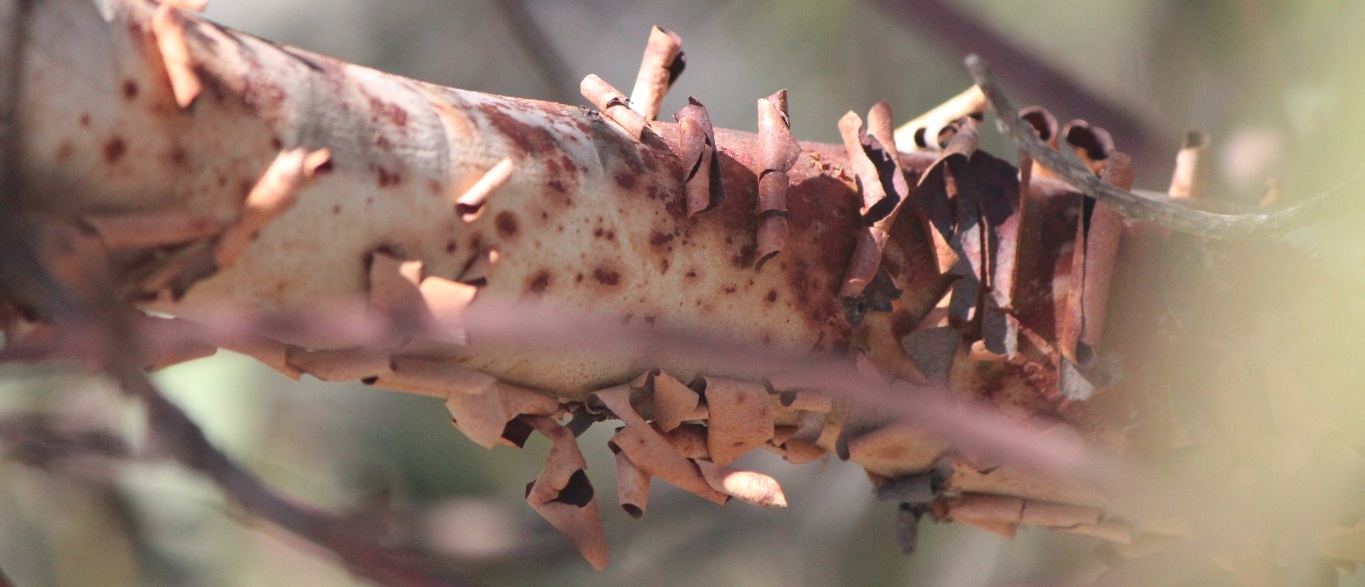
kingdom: Plantae
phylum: Tracheophyta
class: Magnoliopsida
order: Ericales
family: Ericaceae
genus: Arbutus
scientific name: Arbutus xalapensis
